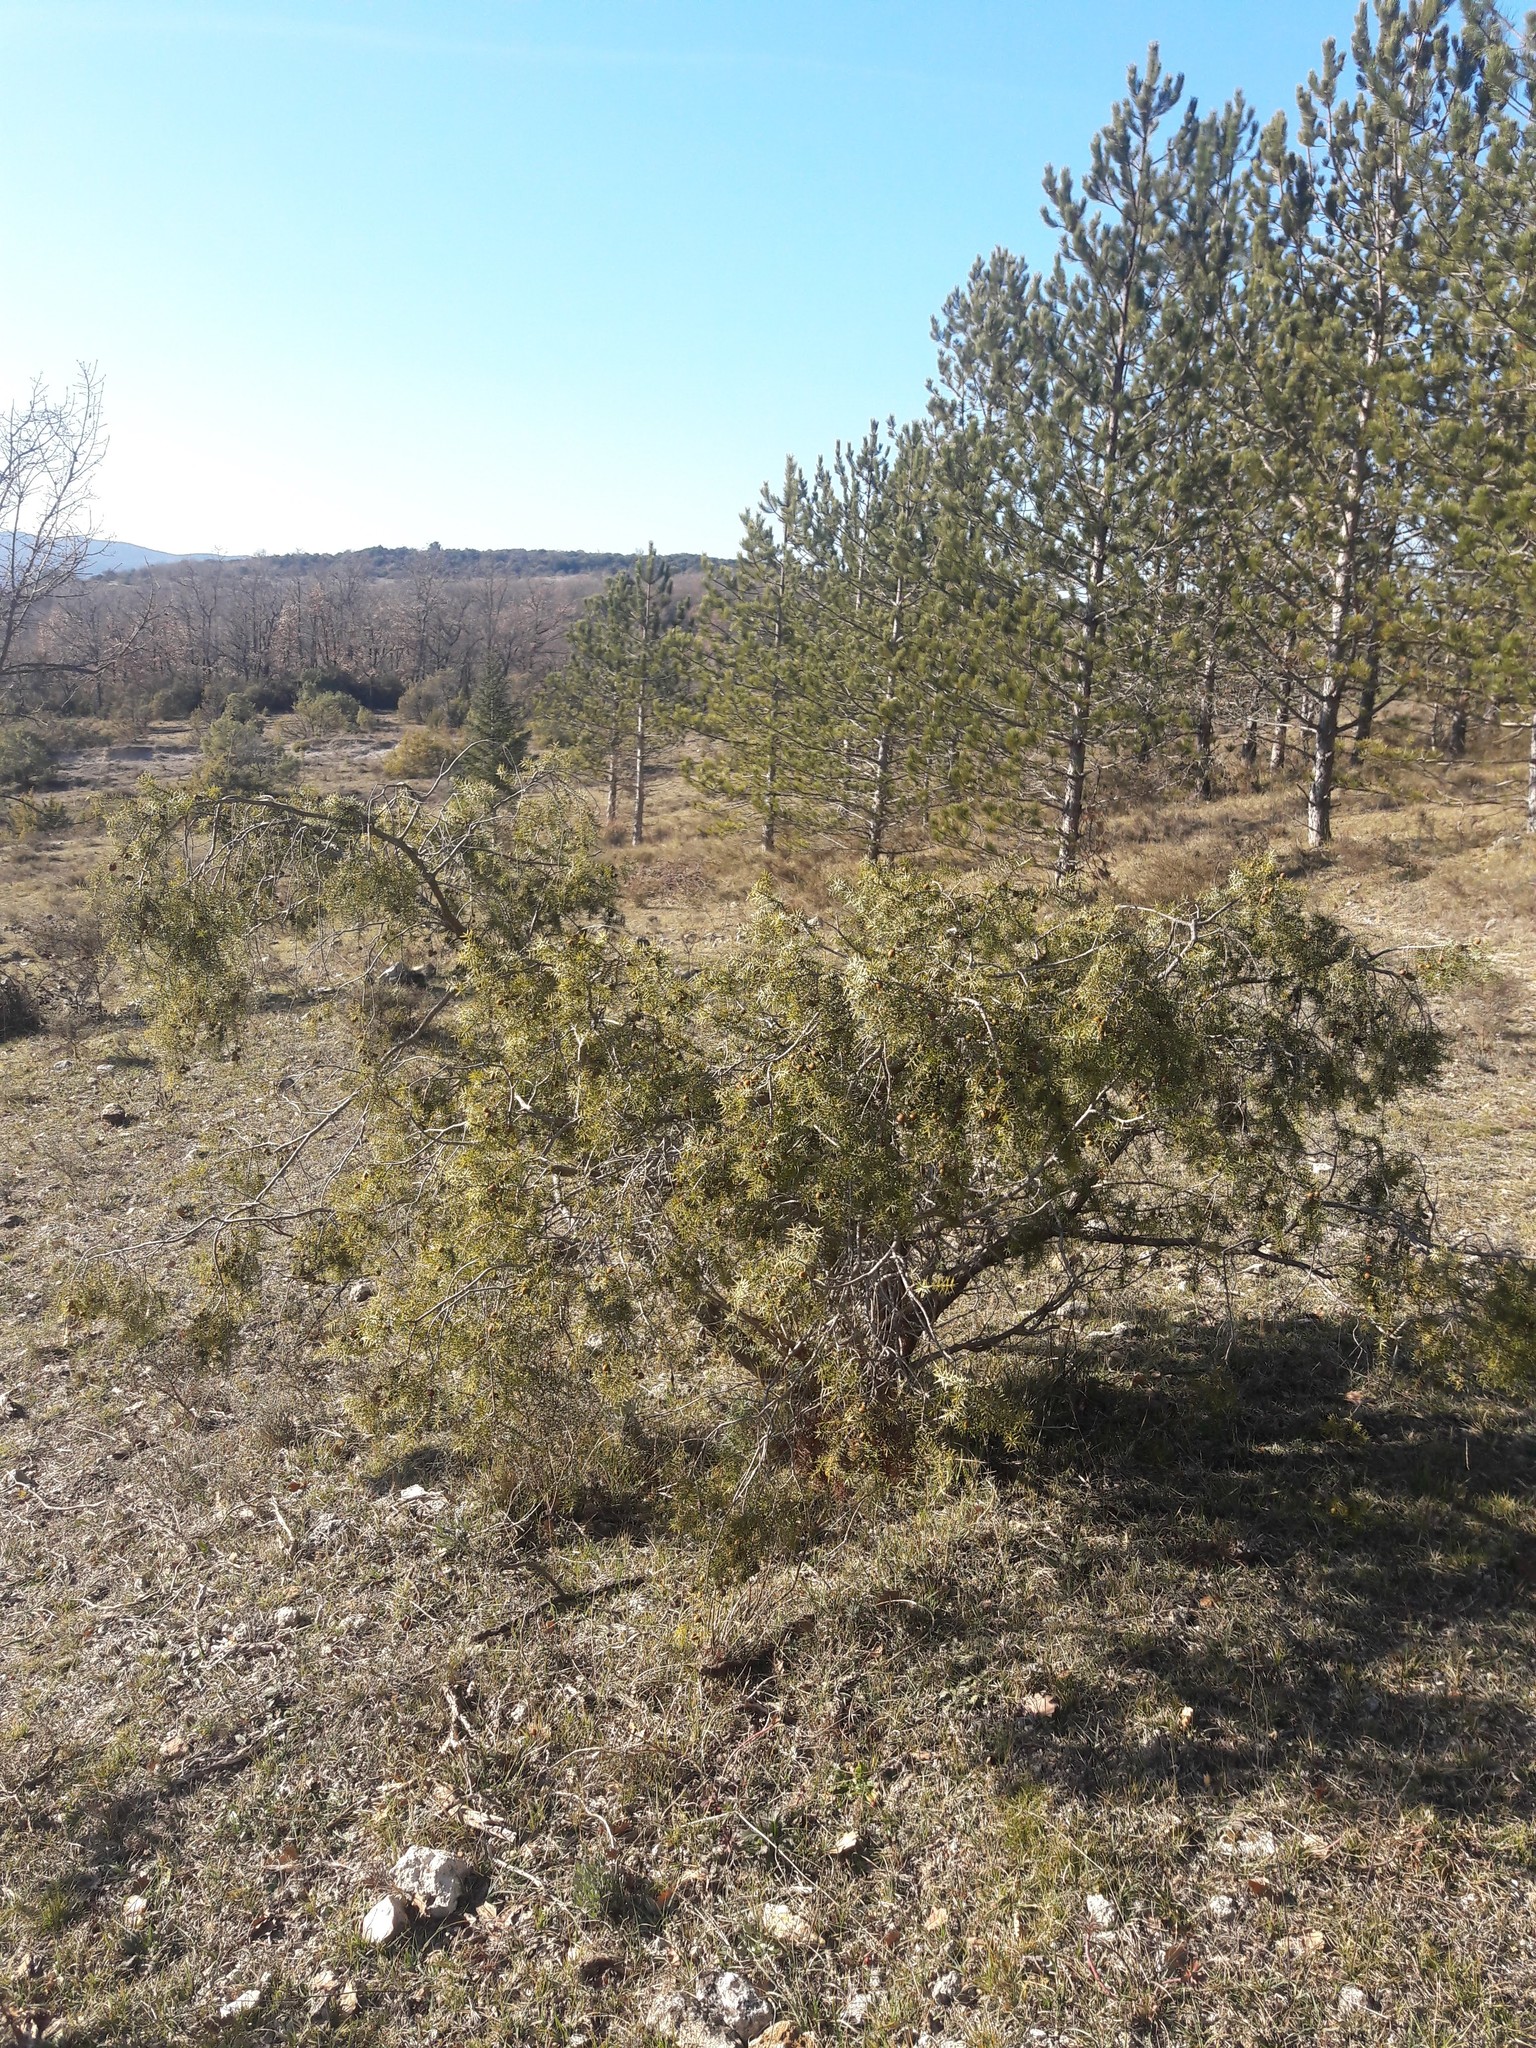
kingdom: Plantae
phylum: Tracheophyta
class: Pinopsida
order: Pinales
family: Cupressaceae
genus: Juniperus
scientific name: Juniperus oxycedrus
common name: Prickly juniper
